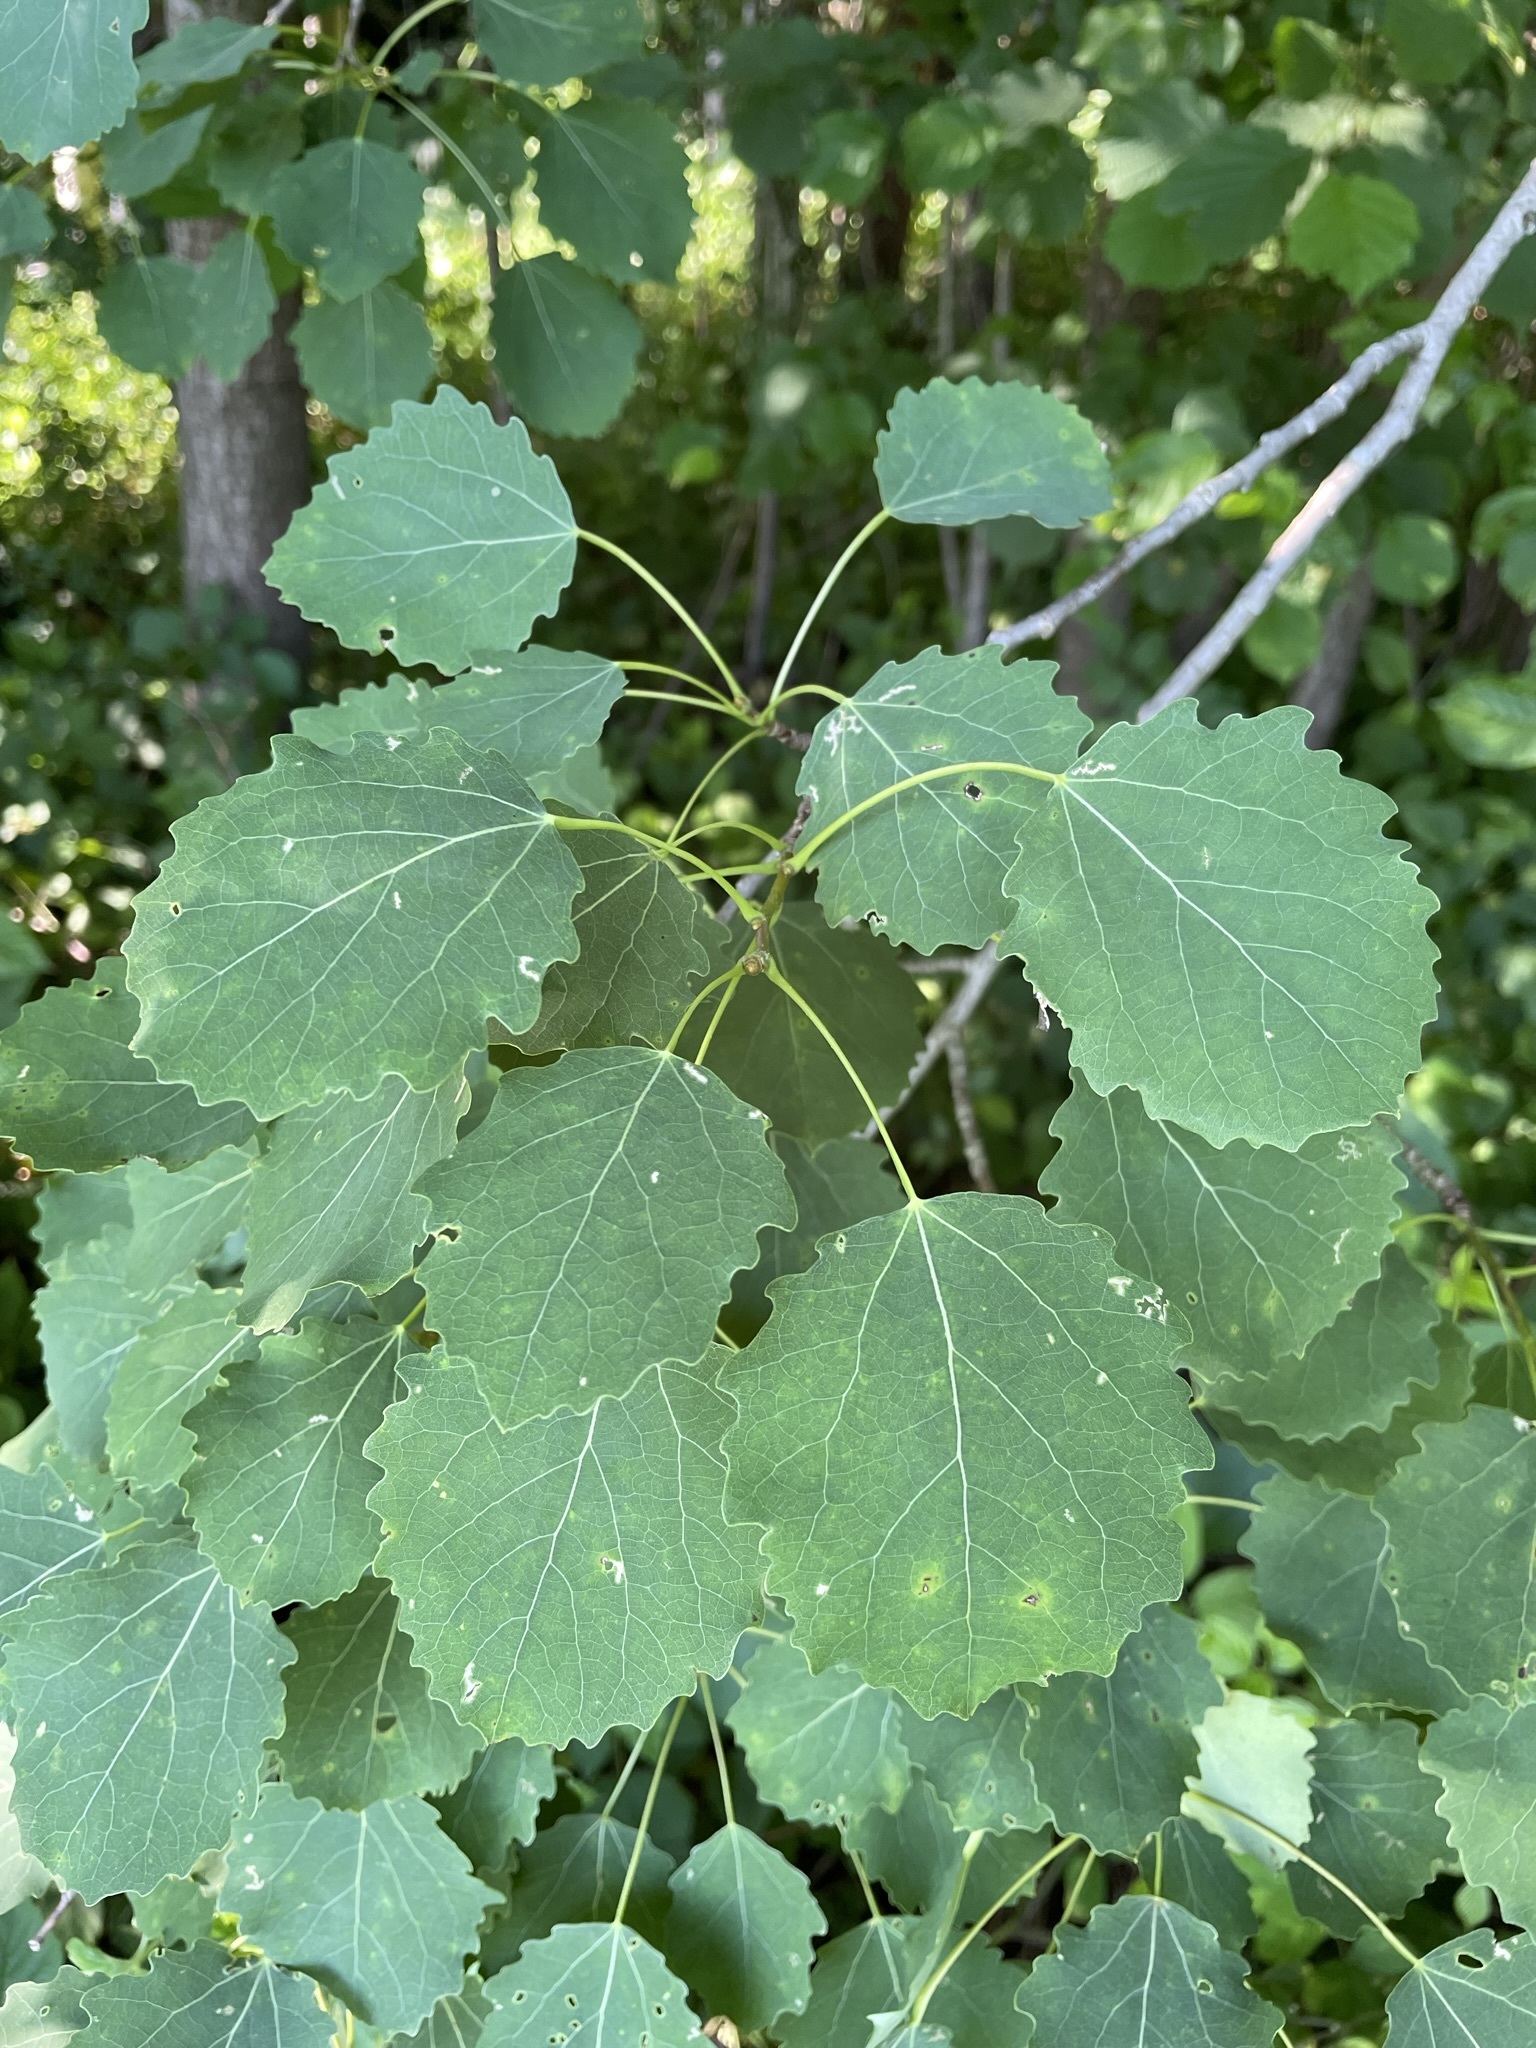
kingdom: Plantae
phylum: Tracheophyta
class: Magnoliopsida
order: Malpighiales
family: Salicaceae
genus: Populus
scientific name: Populus tremula
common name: European aspen
